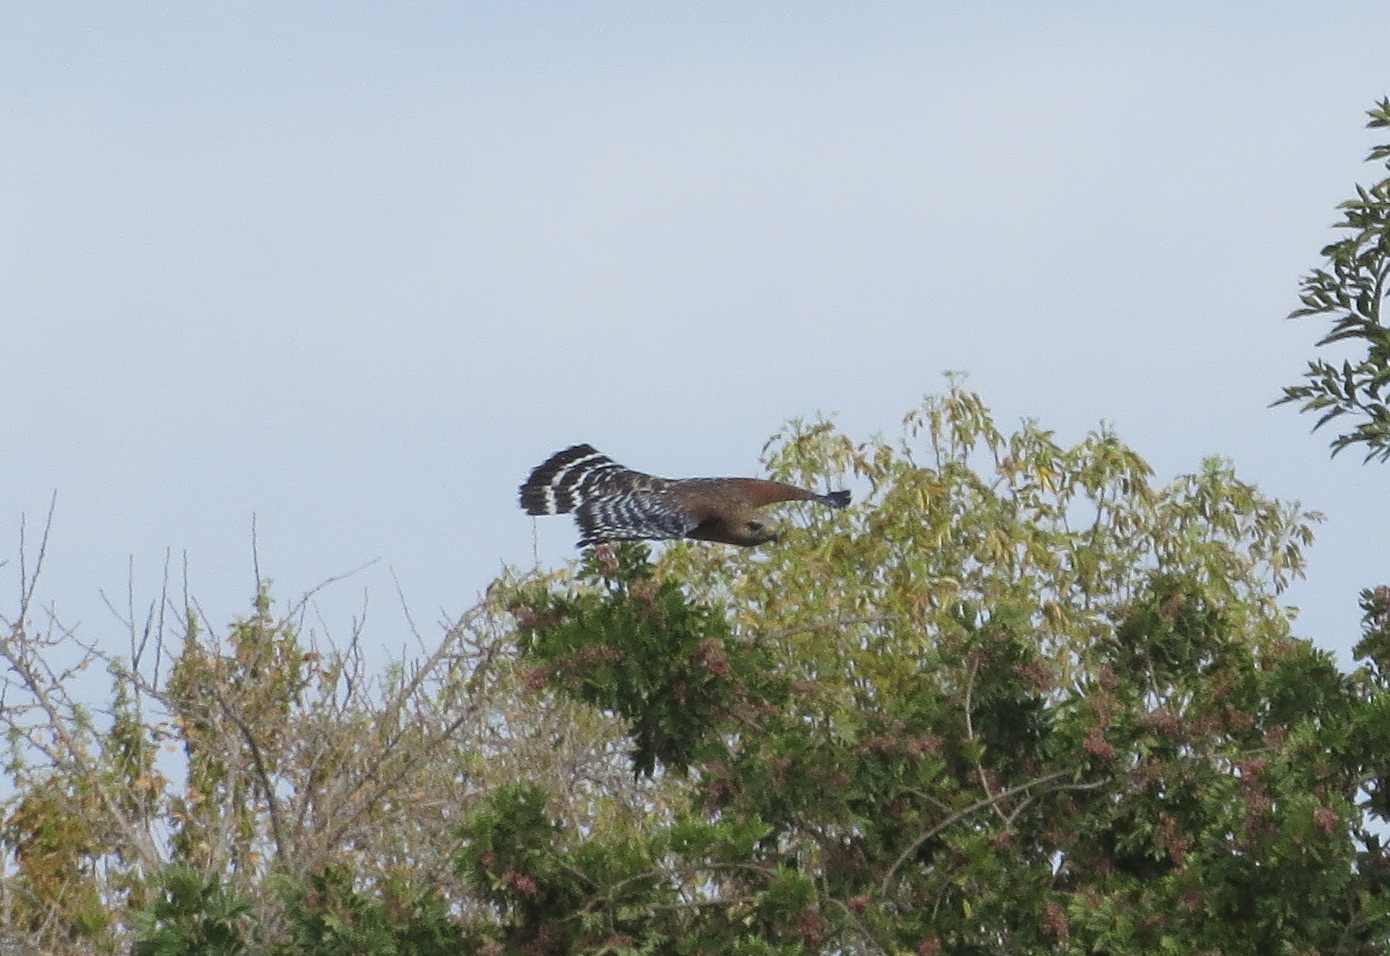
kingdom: Animalia
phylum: Chordata
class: Aves
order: Accipitriformes
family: Accipitridae
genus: Buteo
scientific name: Buteo lineatus
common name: Red-shouldered hawk
